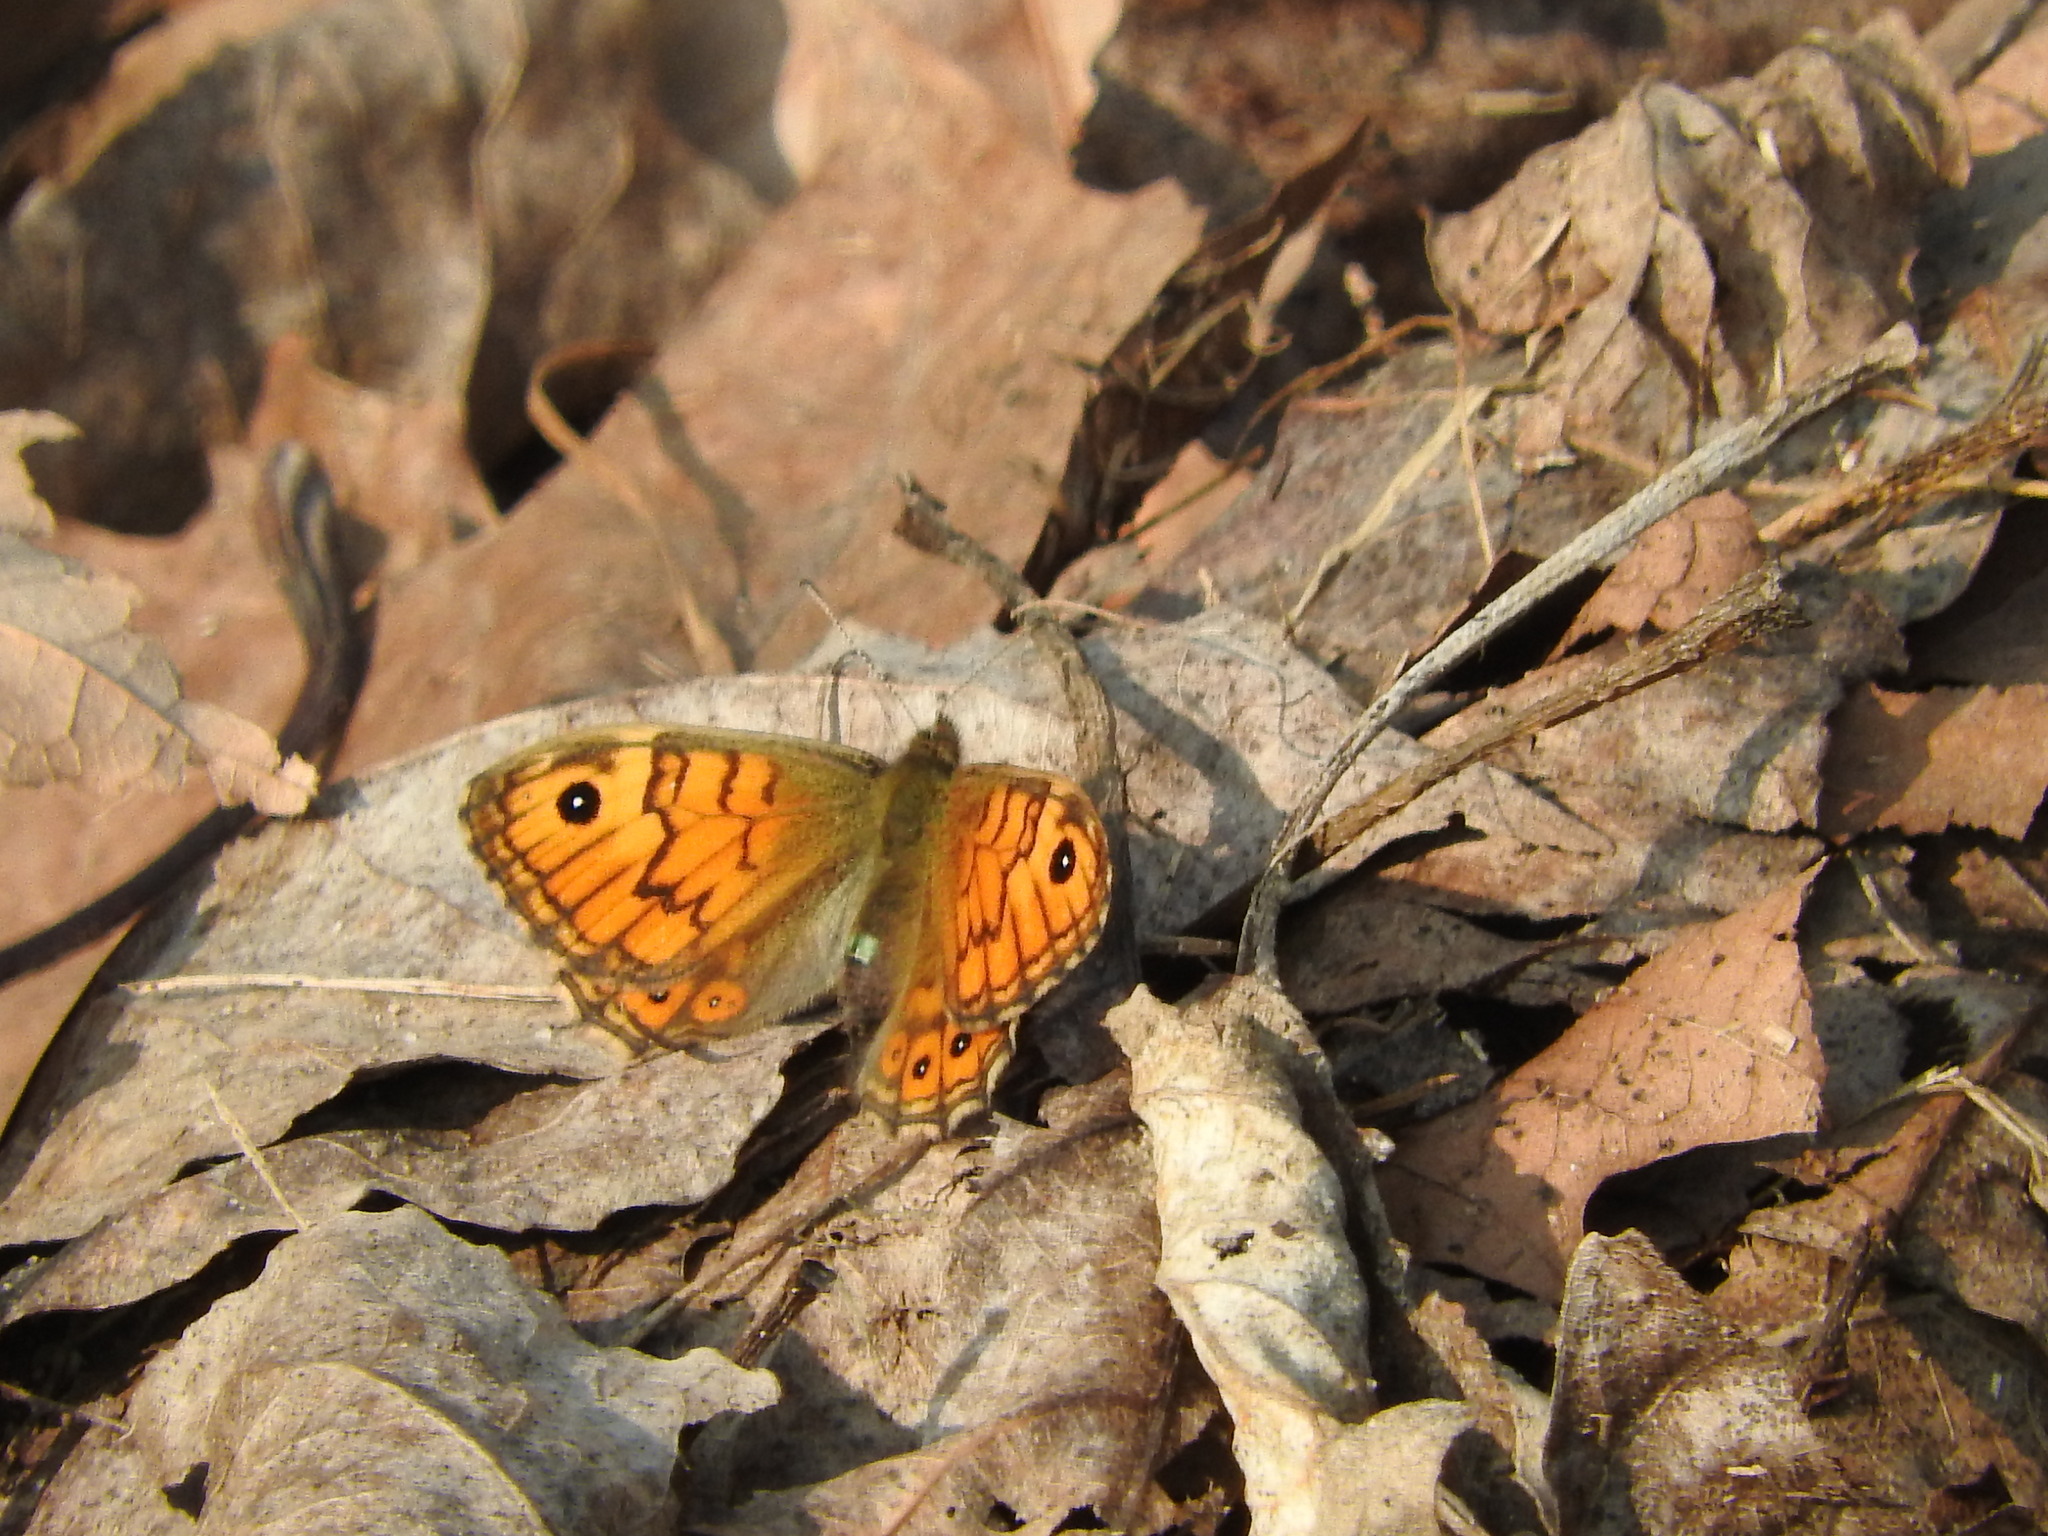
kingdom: Animalia
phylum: Arthropoda
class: Insecta
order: Lepidoptera
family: Nymphalidae
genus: Pararge
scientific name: Pararge Lasiommata megera
